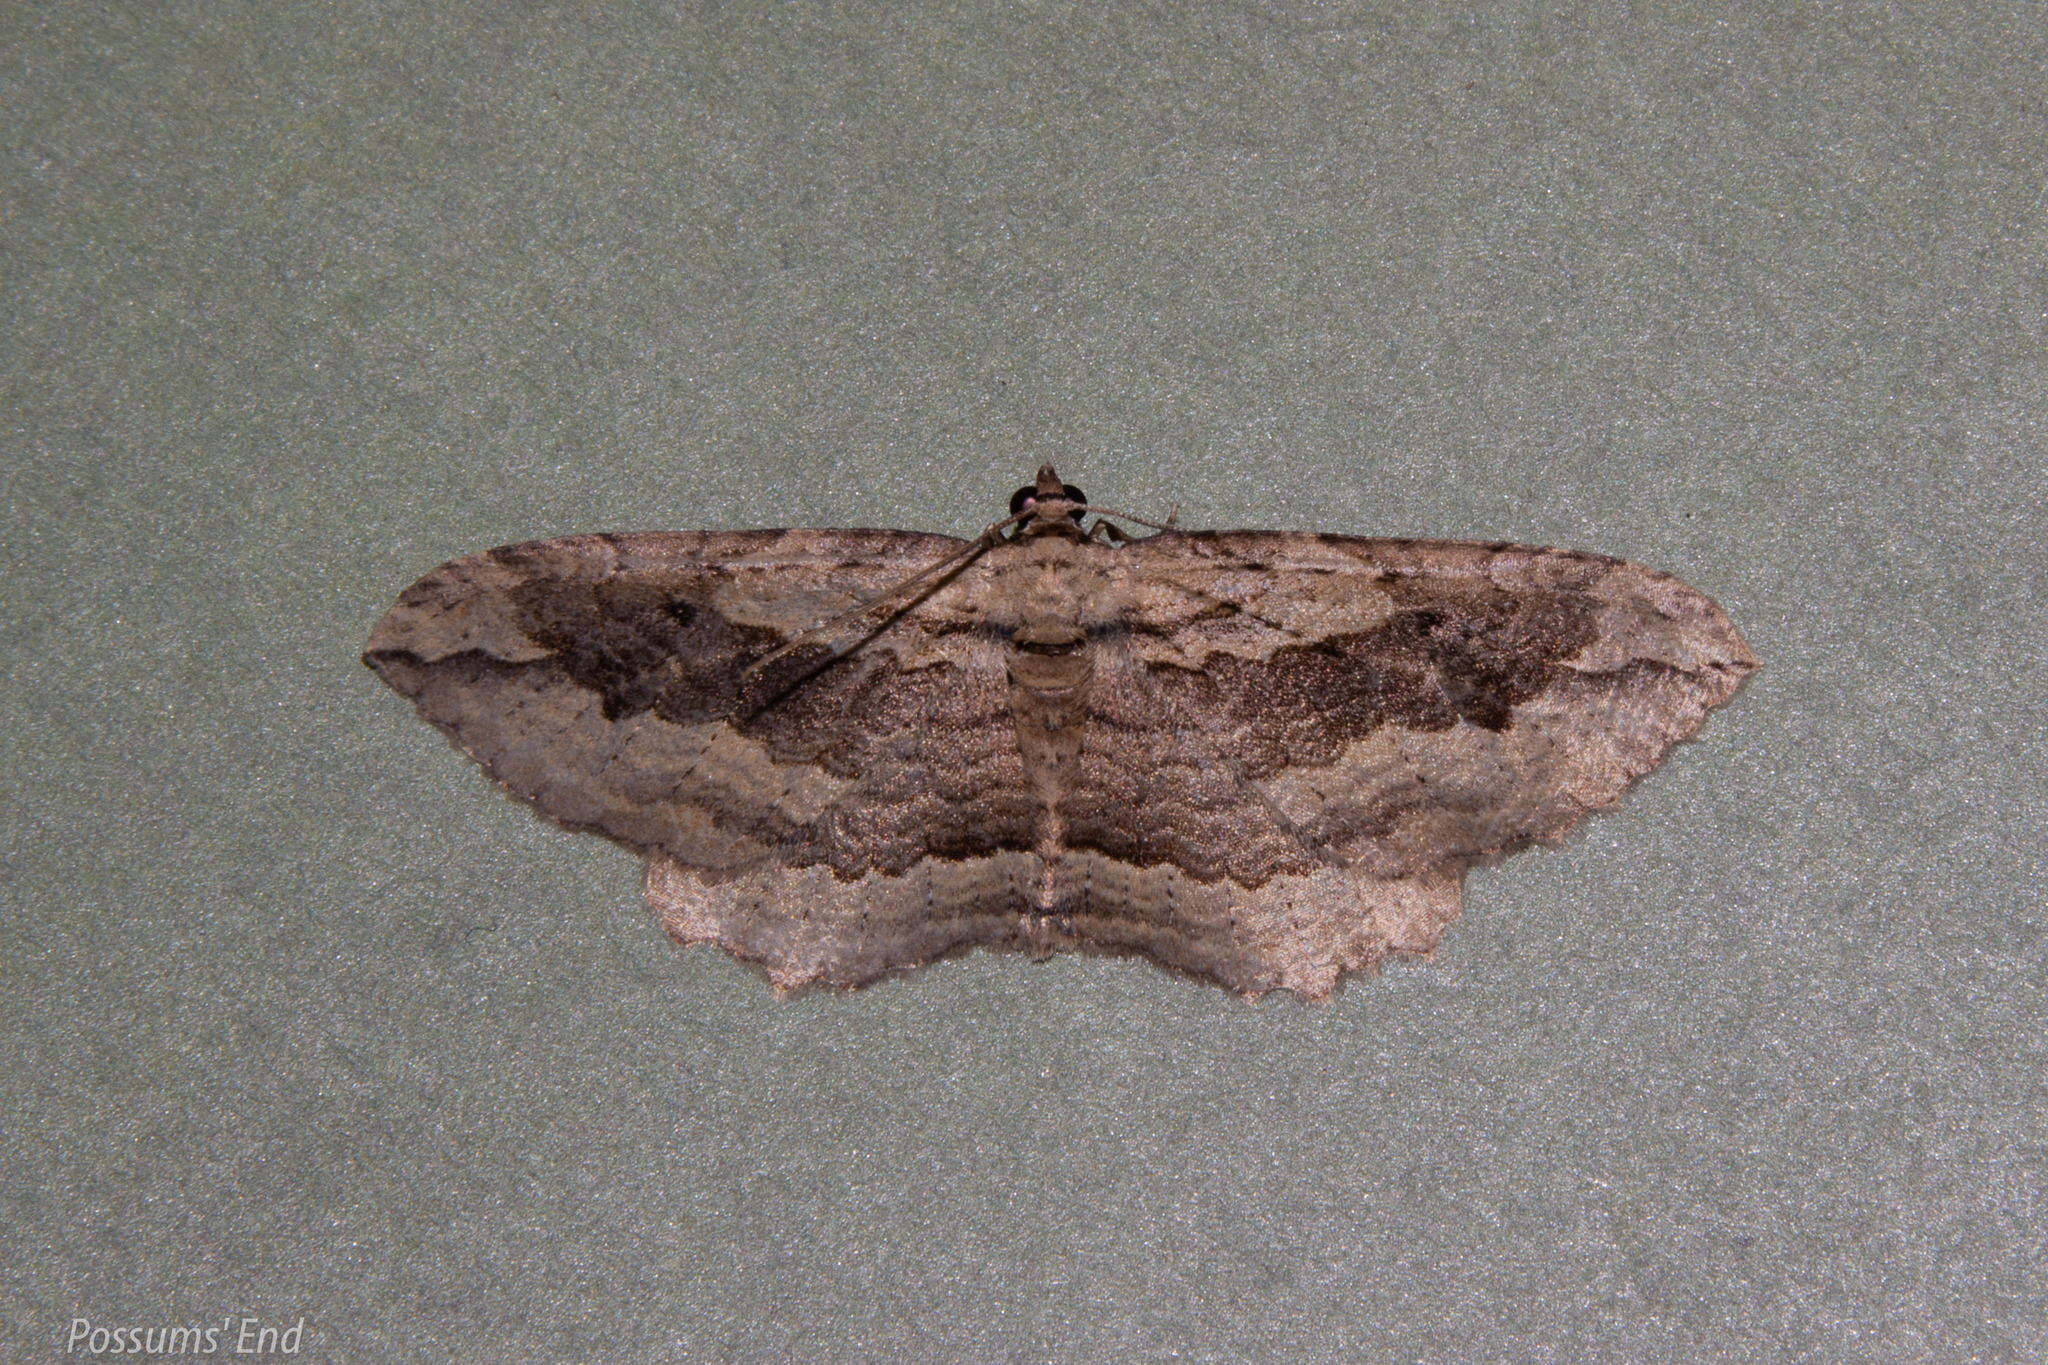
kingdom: Animalia
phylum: Arthropoda
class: Insecta
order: Lepidoptera
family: Geometridae
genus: Austrocidaria
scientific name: Austrocidaria gobiata
